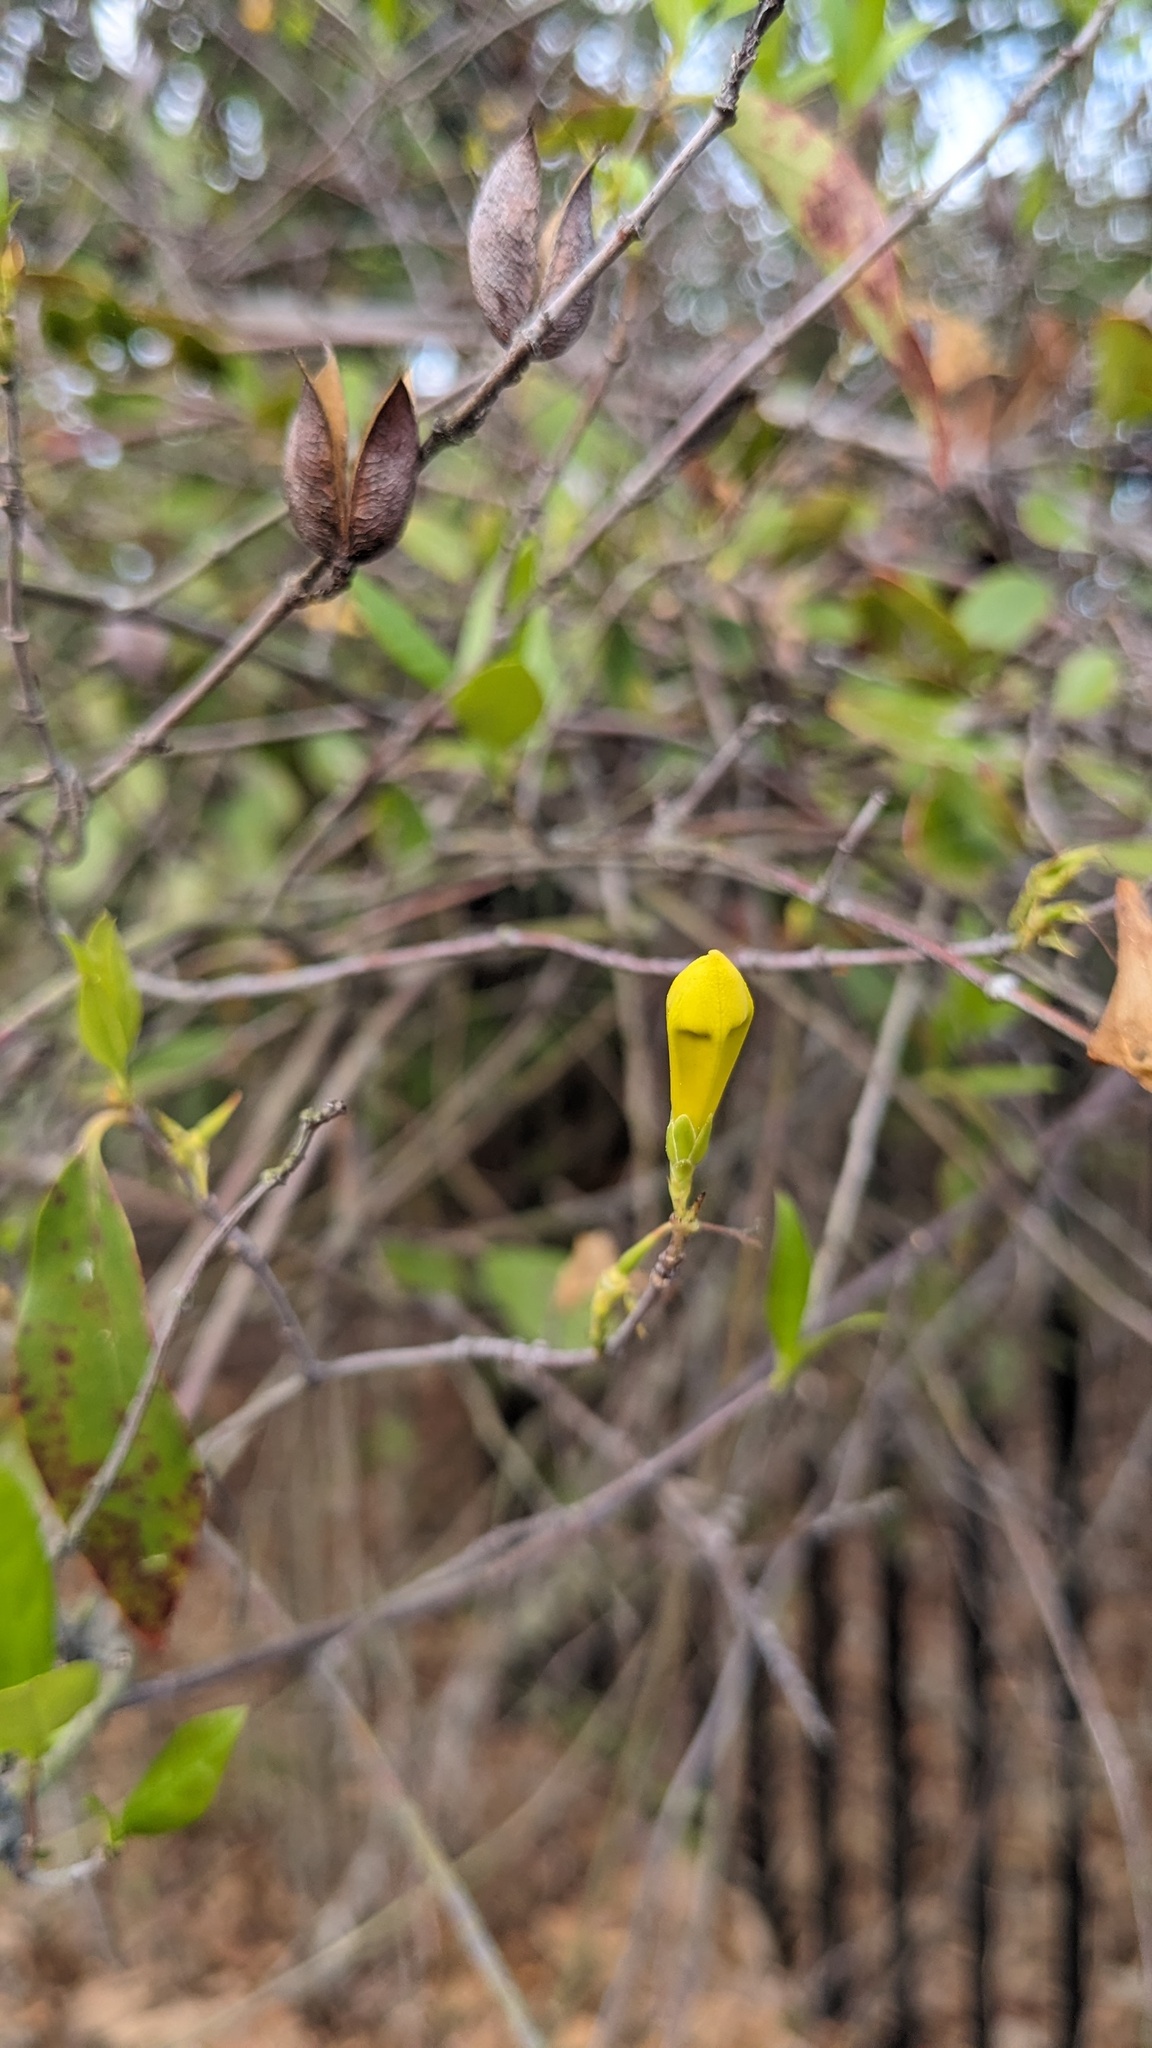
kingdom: Plantae
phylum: Tracheophyta
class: Magnoliopsida
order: Gentianales
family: Gelsemiaceae
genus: Gelsemium
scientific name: Gelsemium sempervirens
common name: Carolina-jasmine
